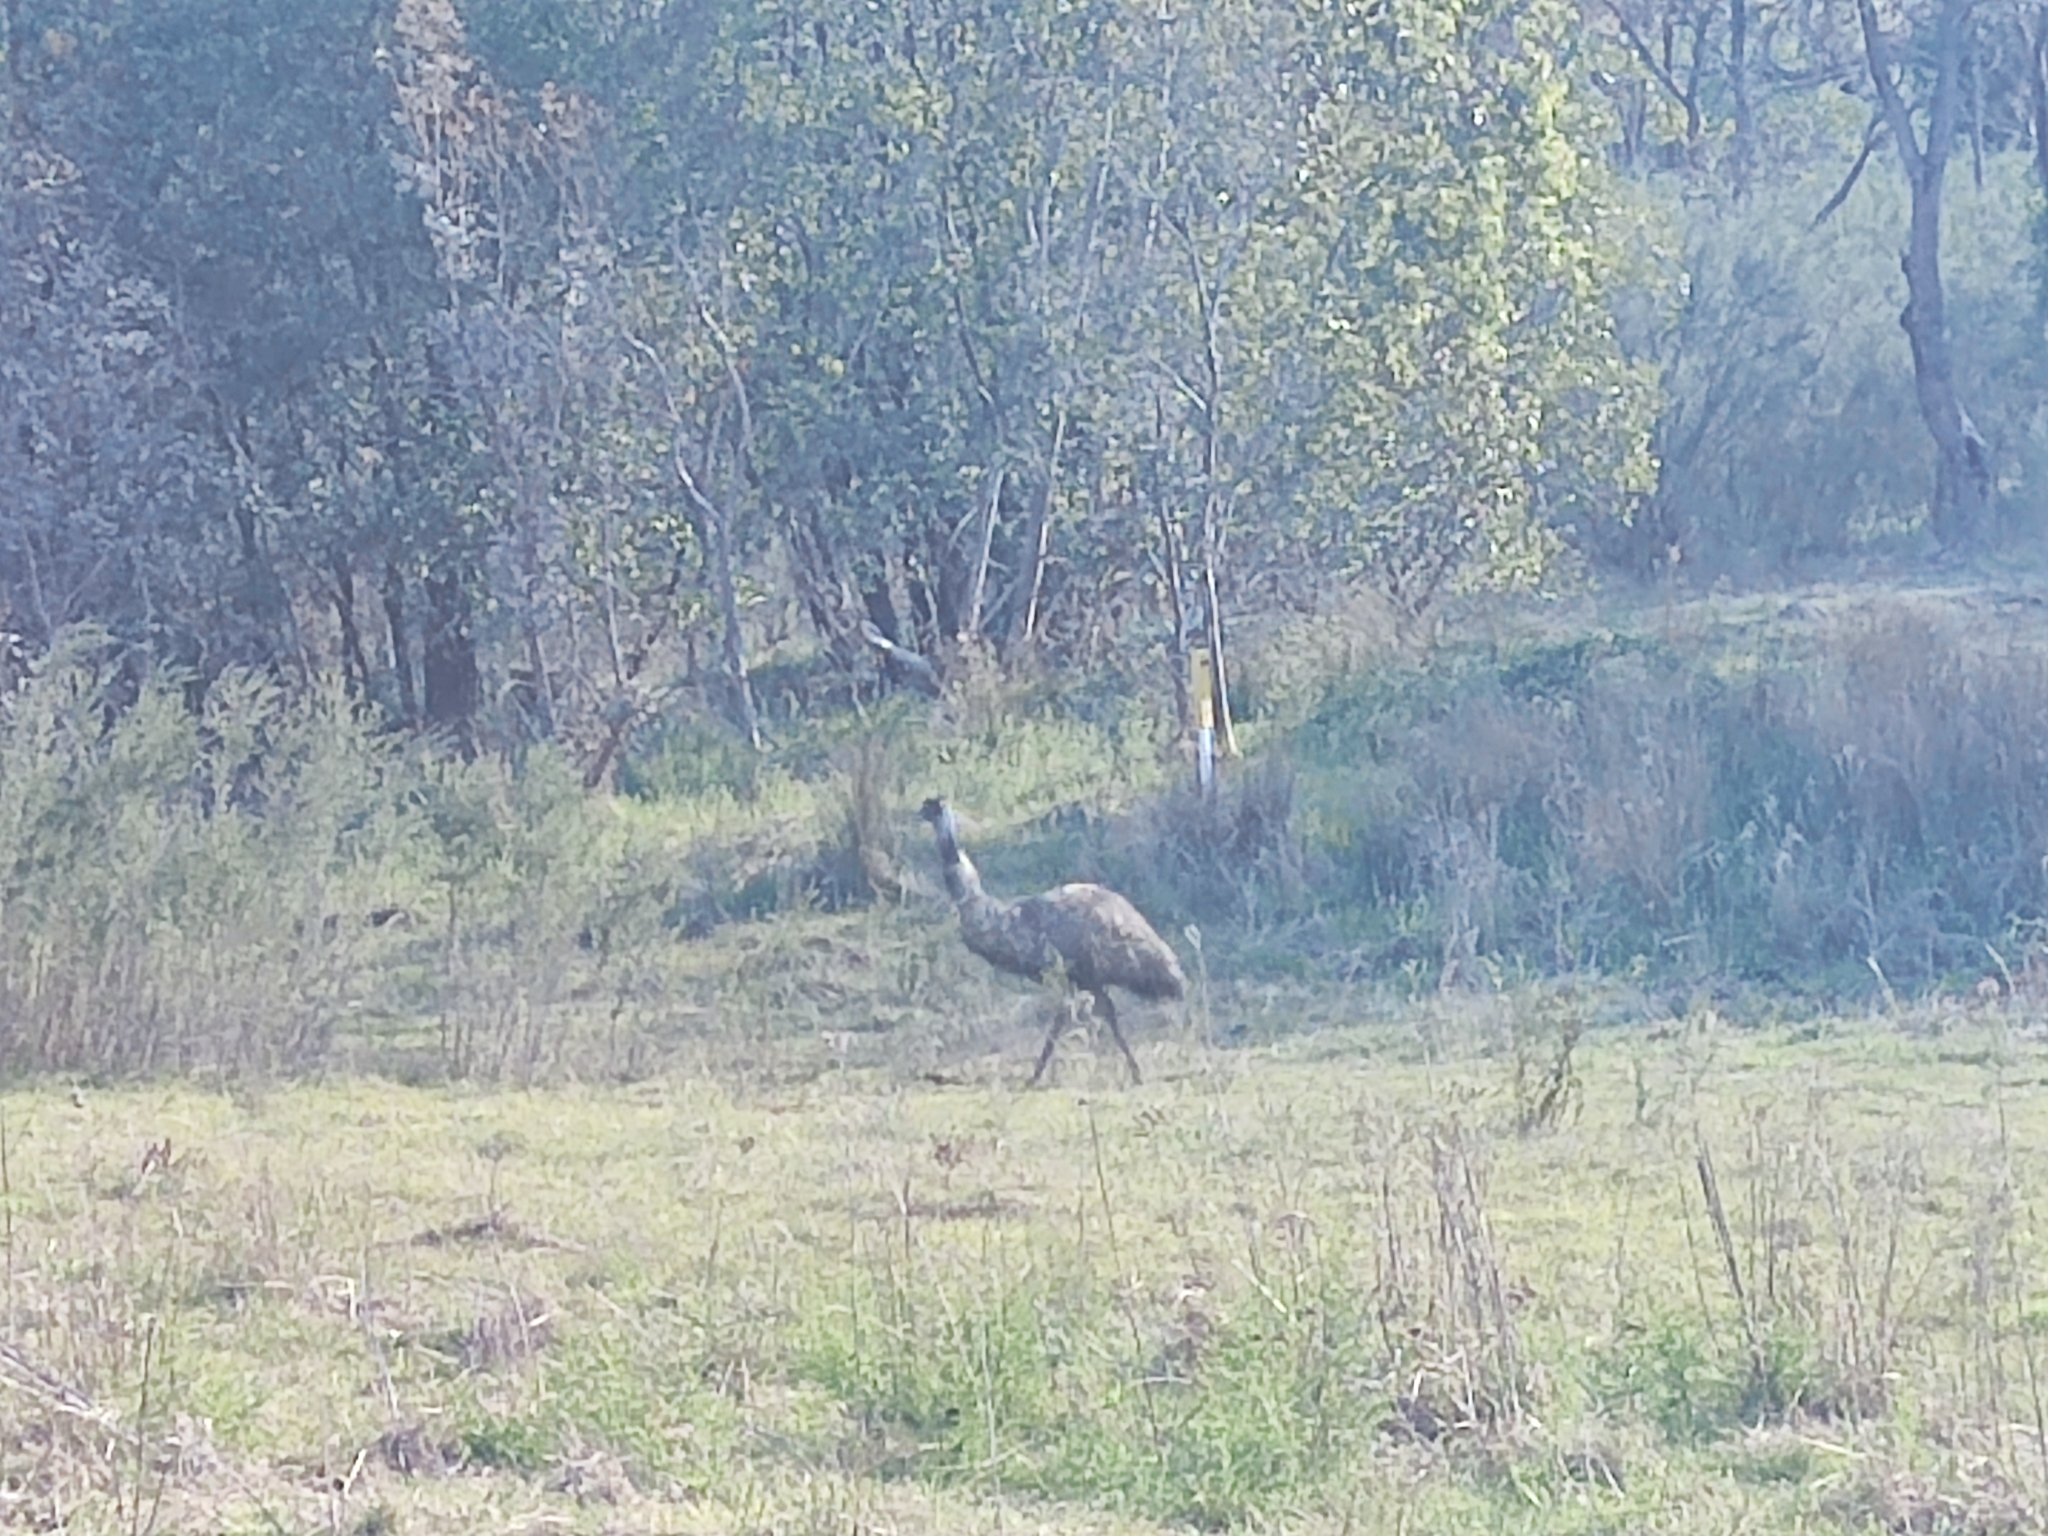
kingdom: Animalia
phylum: Chordata
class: Aves
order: Casuariiformes
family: Dromaiidae
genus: Dromaius
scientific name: Dromaius novaehollandiae
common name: Emu
